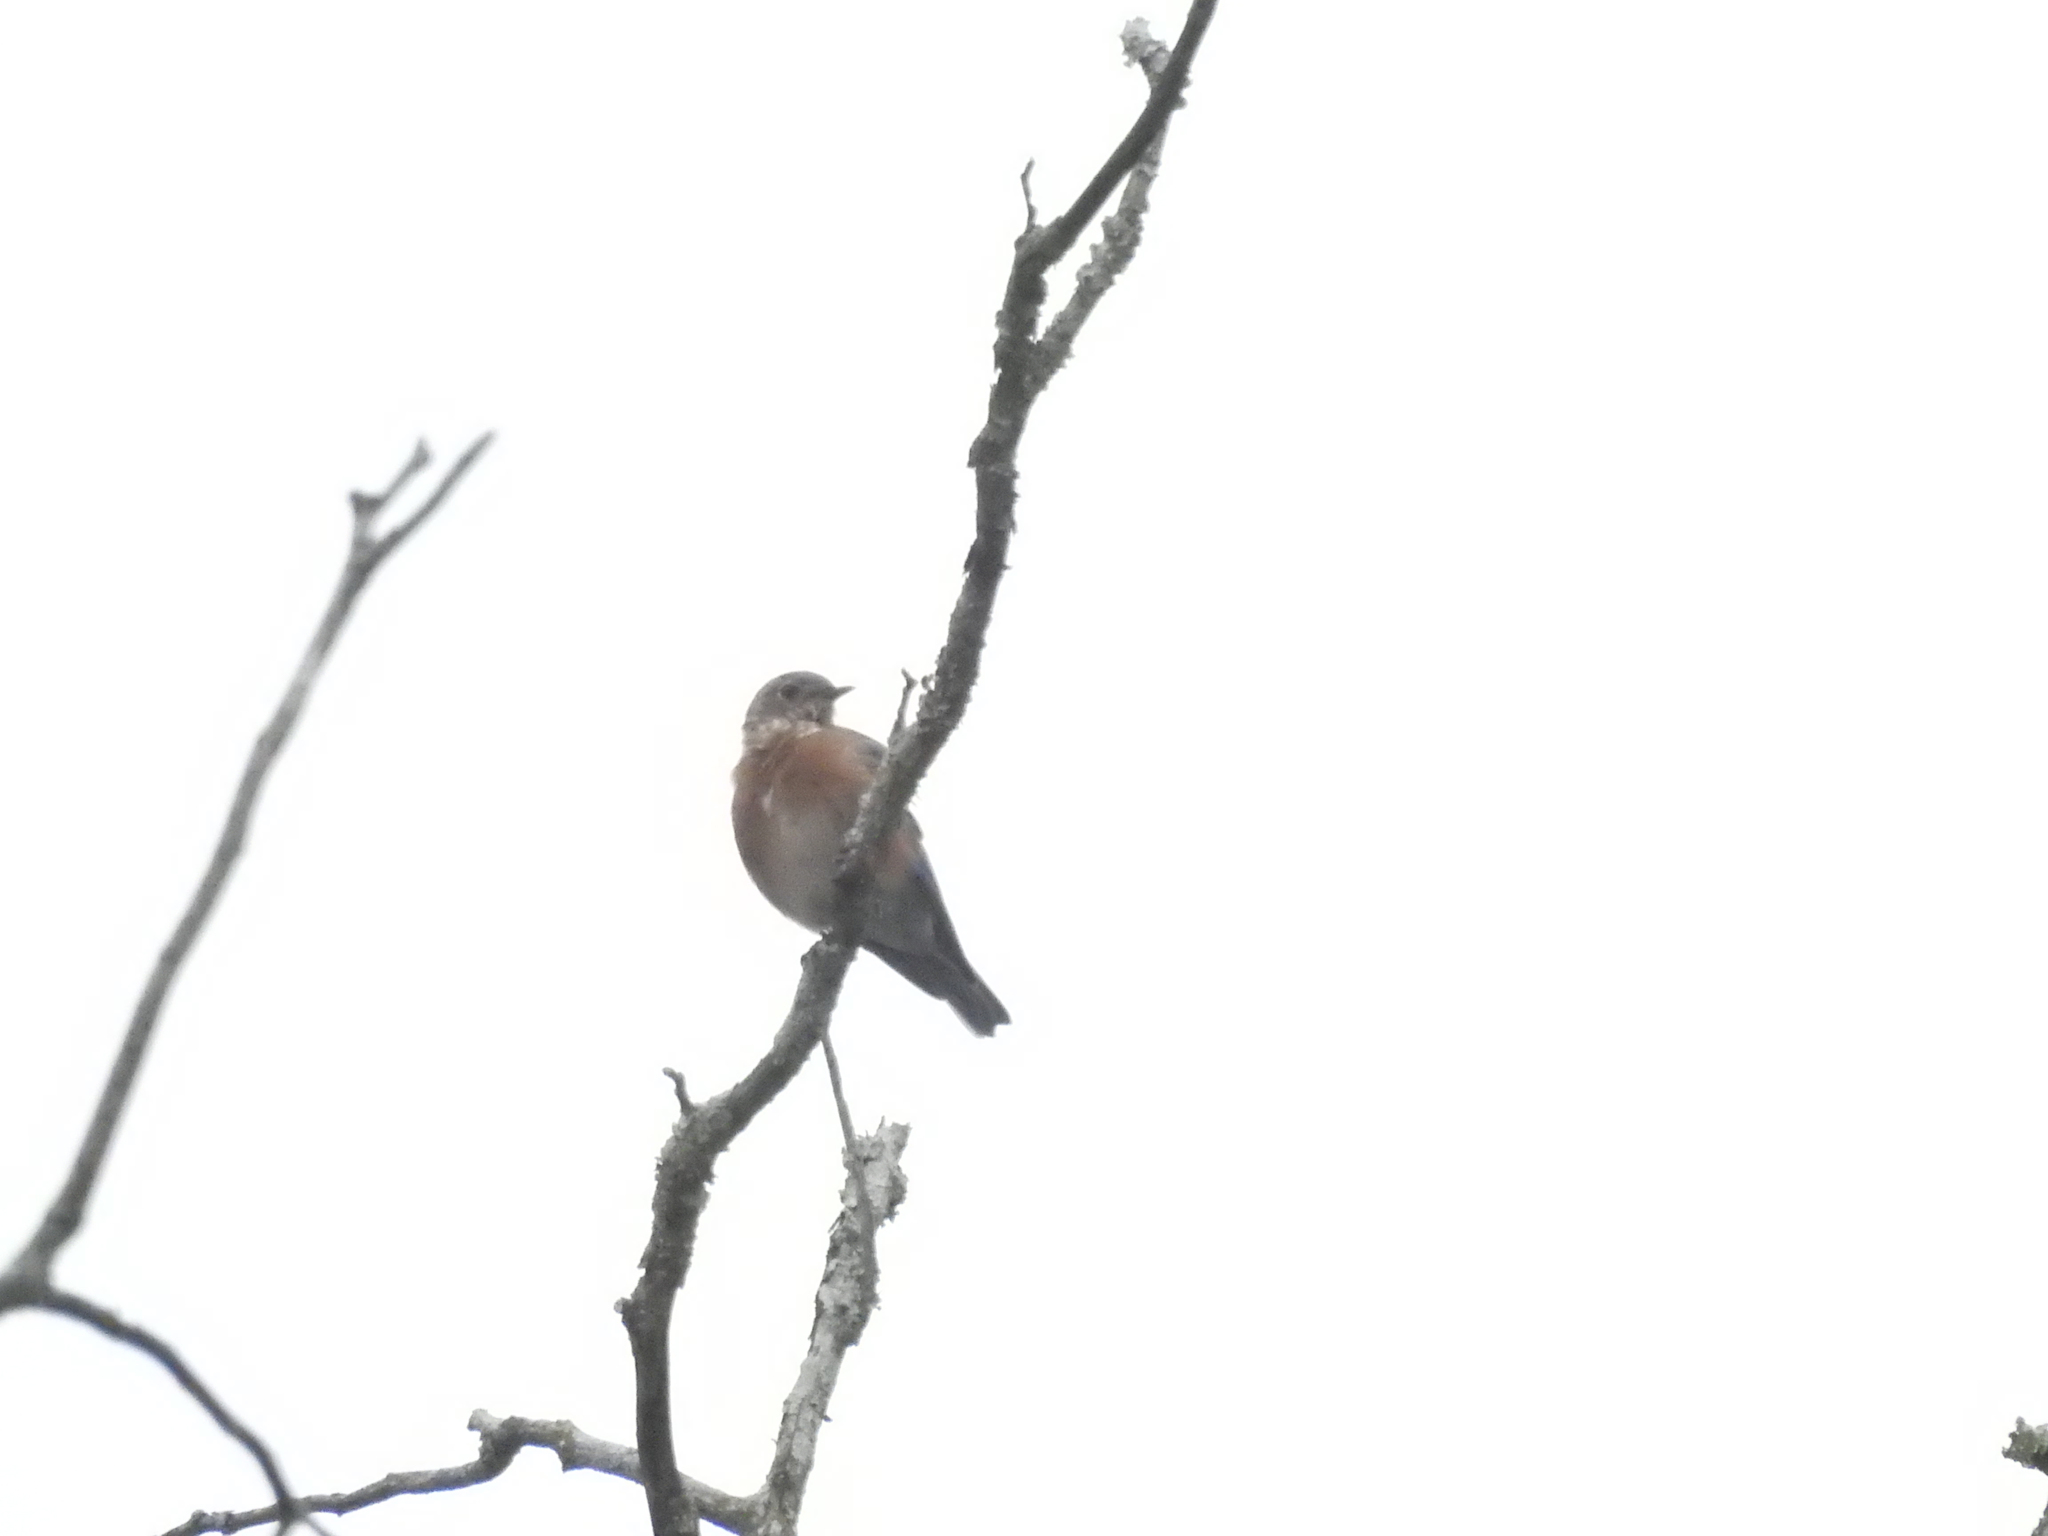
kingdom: Animalia
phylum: Chordata
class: Aves
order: Passeriformes
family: Turdidae
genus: Sialia
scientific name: Sialia sialis
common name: Eastern bluebird
